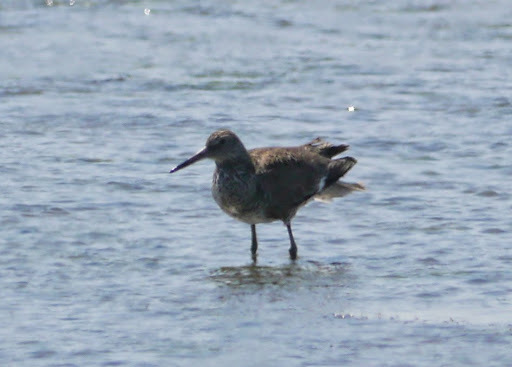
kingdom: Animalia
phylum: Chordata
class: Aves
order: Charadriiformes
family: Scolopacidae
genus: Tringa
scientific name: Tringa semipalmata
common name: Willet
